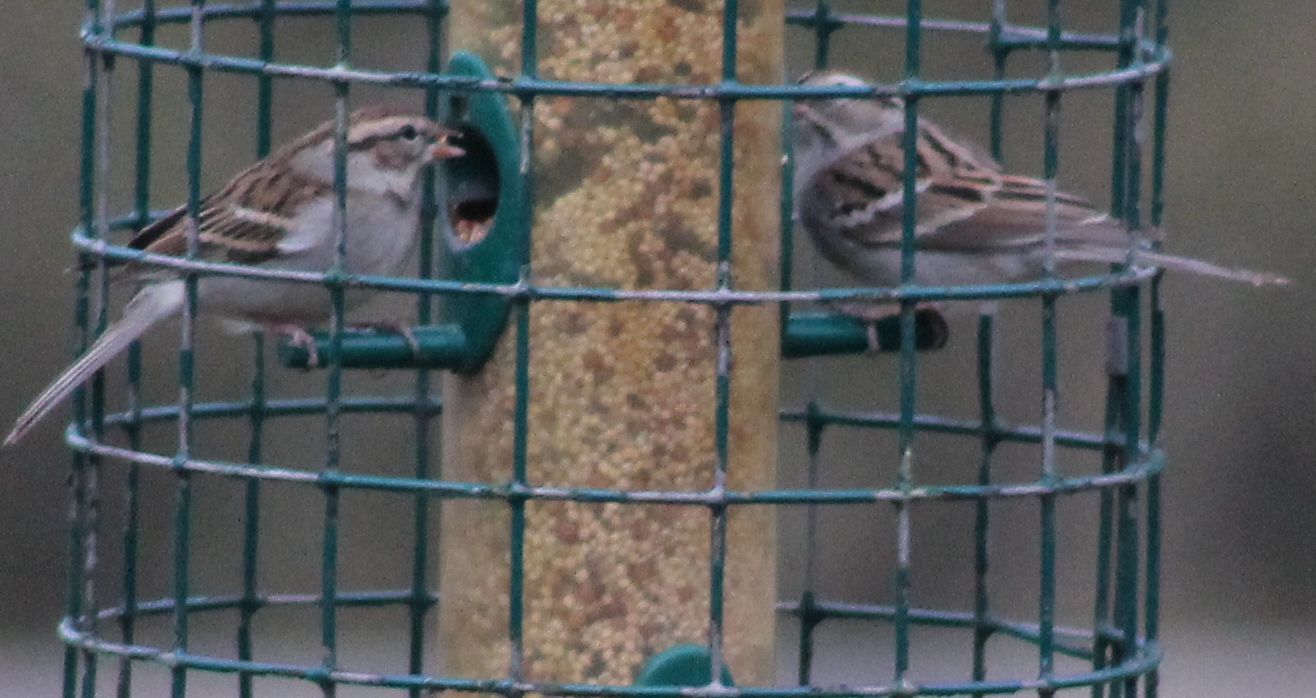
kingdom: Animalia
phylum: Chordata
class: Aves
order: Passeriformes
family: Passerellidae
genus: Spizella
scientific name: Spizella passerina
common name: Chipping sparrow
